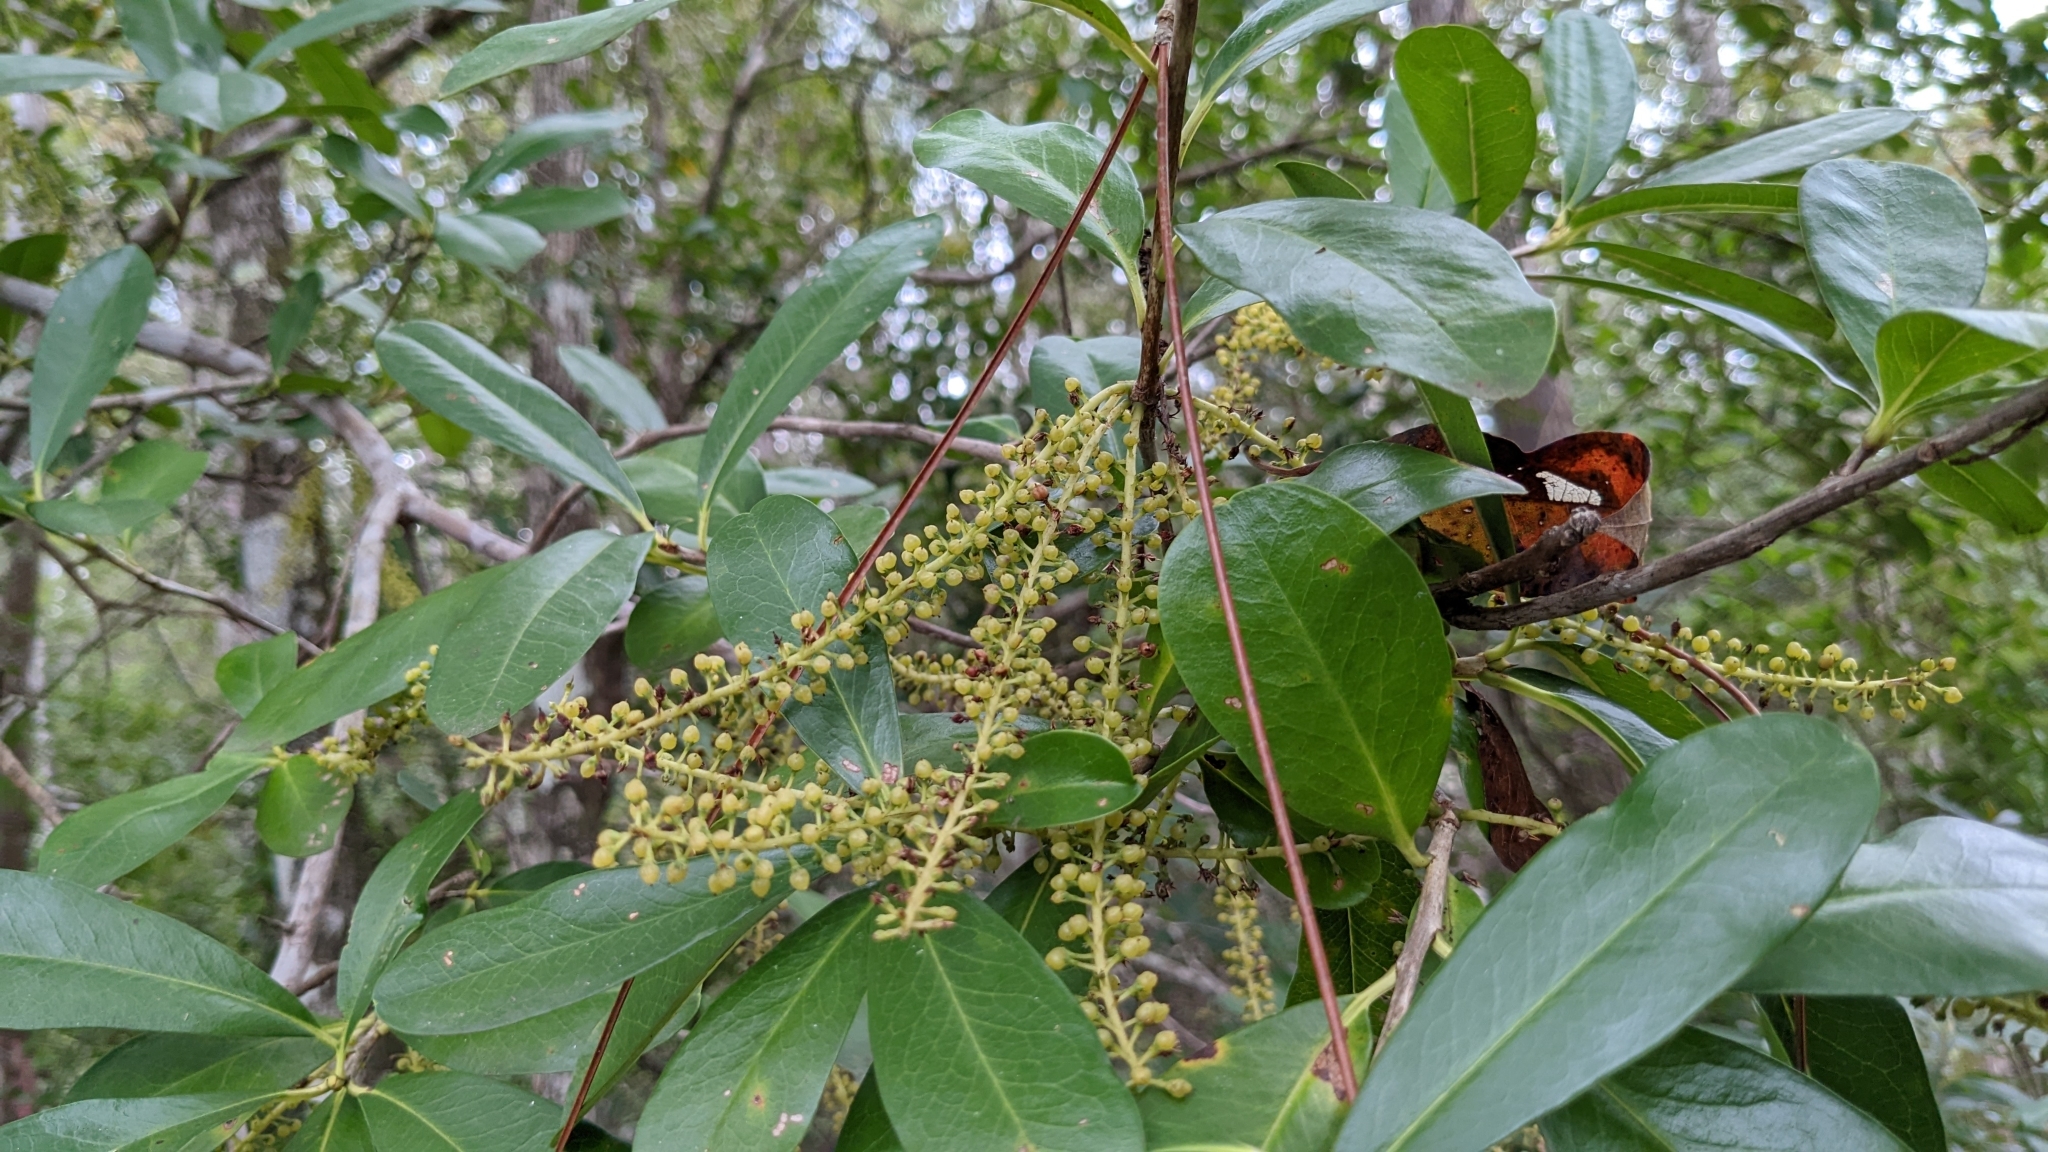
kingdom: Plantae
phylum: Tracheophyta
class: Magnoliopsida
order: Ericales
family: Cyrillaceae
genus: Cyrilla
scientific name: Cyrilla racemiflora
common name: Black titi
